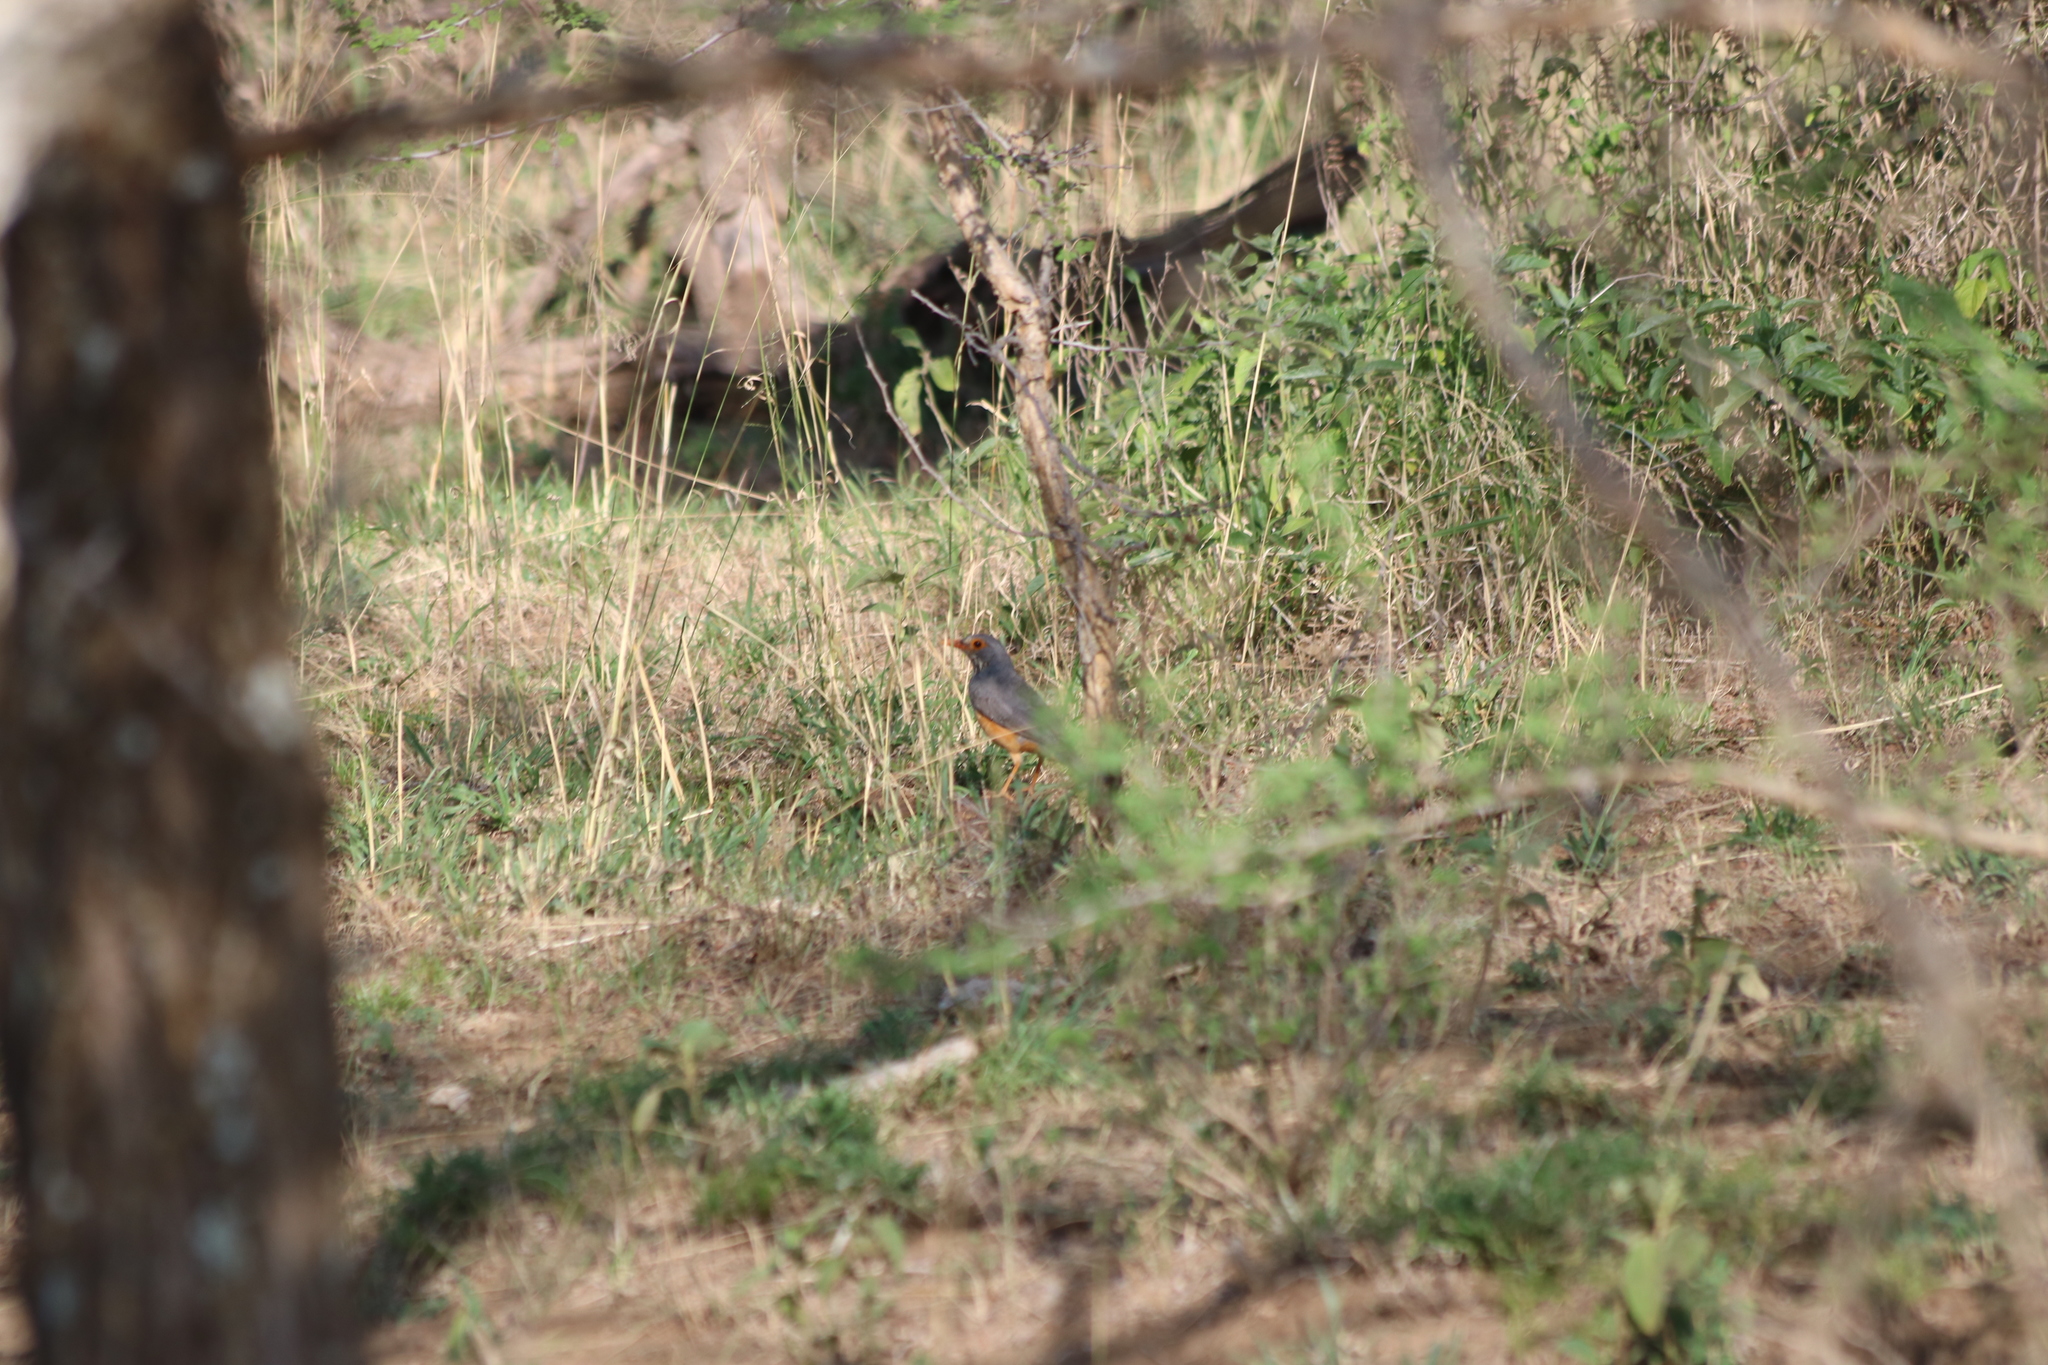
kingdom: Animalia
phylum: Chordata
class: Aves
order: Passeriformes
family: Turdidae
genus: Turdus
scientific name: Turdus tephronotus
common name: African bare-eyed thrush
